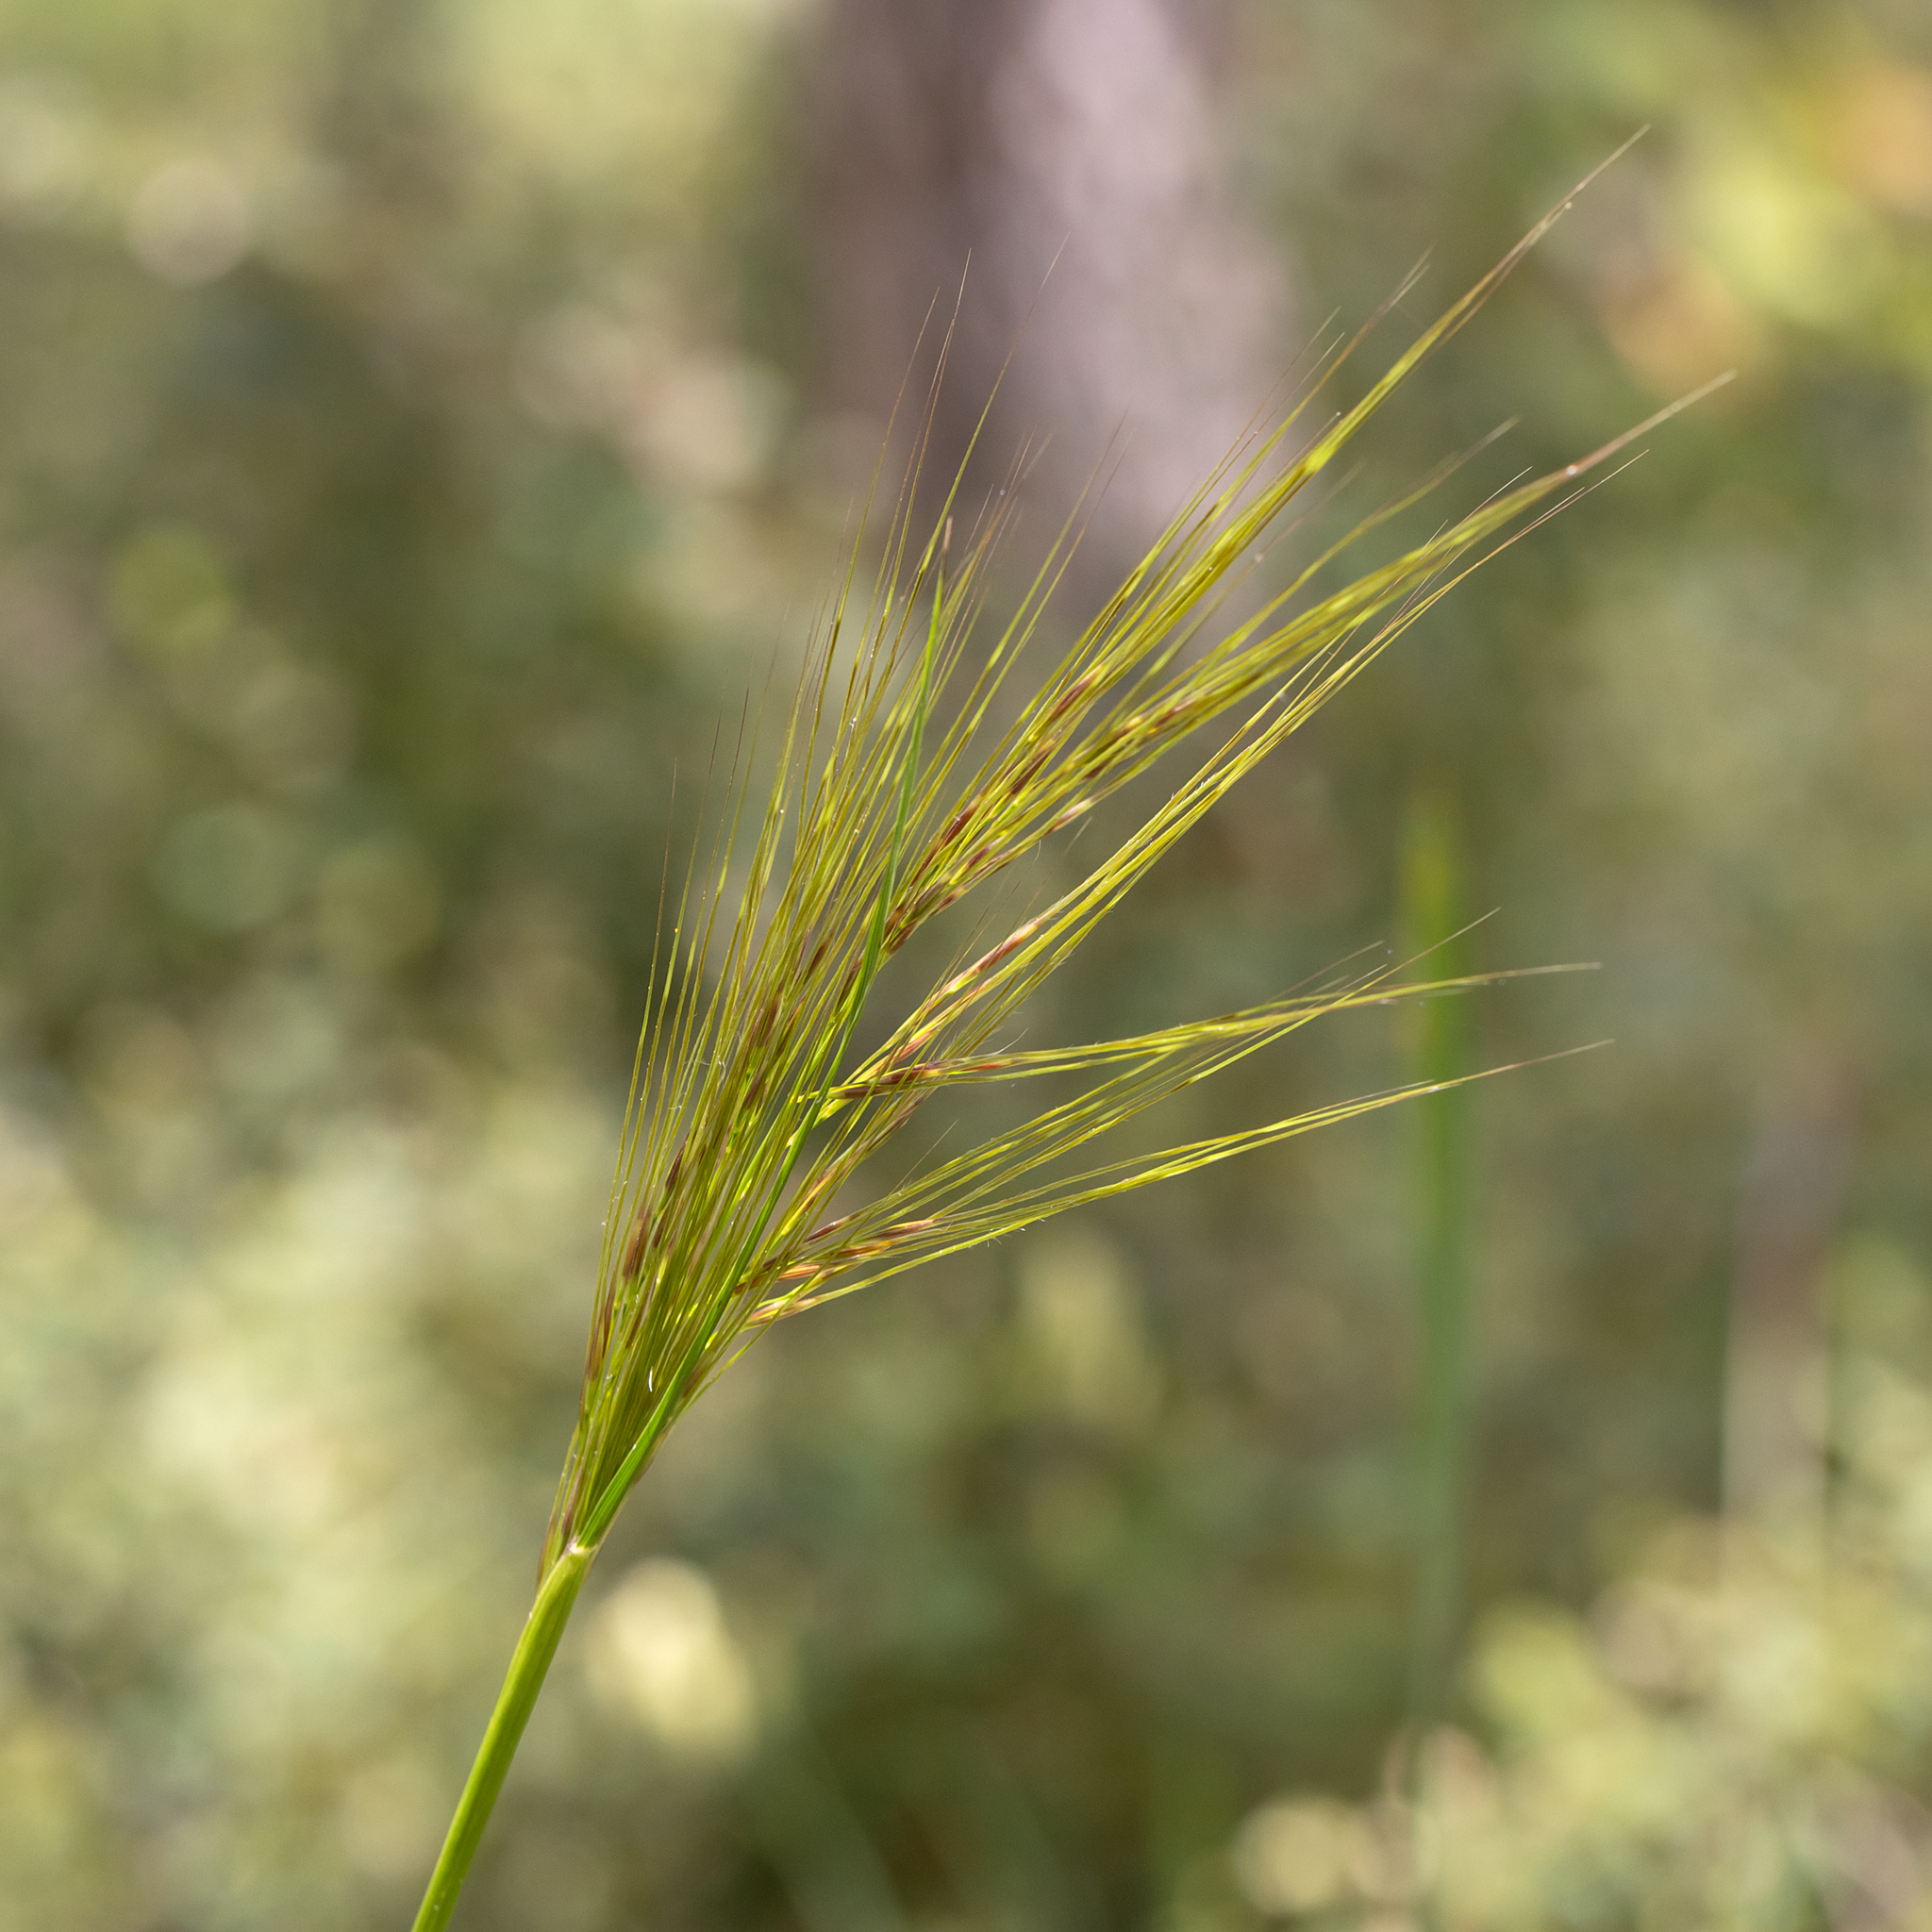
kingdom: Plantae
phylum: Tracheophyta
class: Liliopsida
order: Poales
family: Poaceae
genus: Austrostipa
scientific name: Austrostipa campylachne
